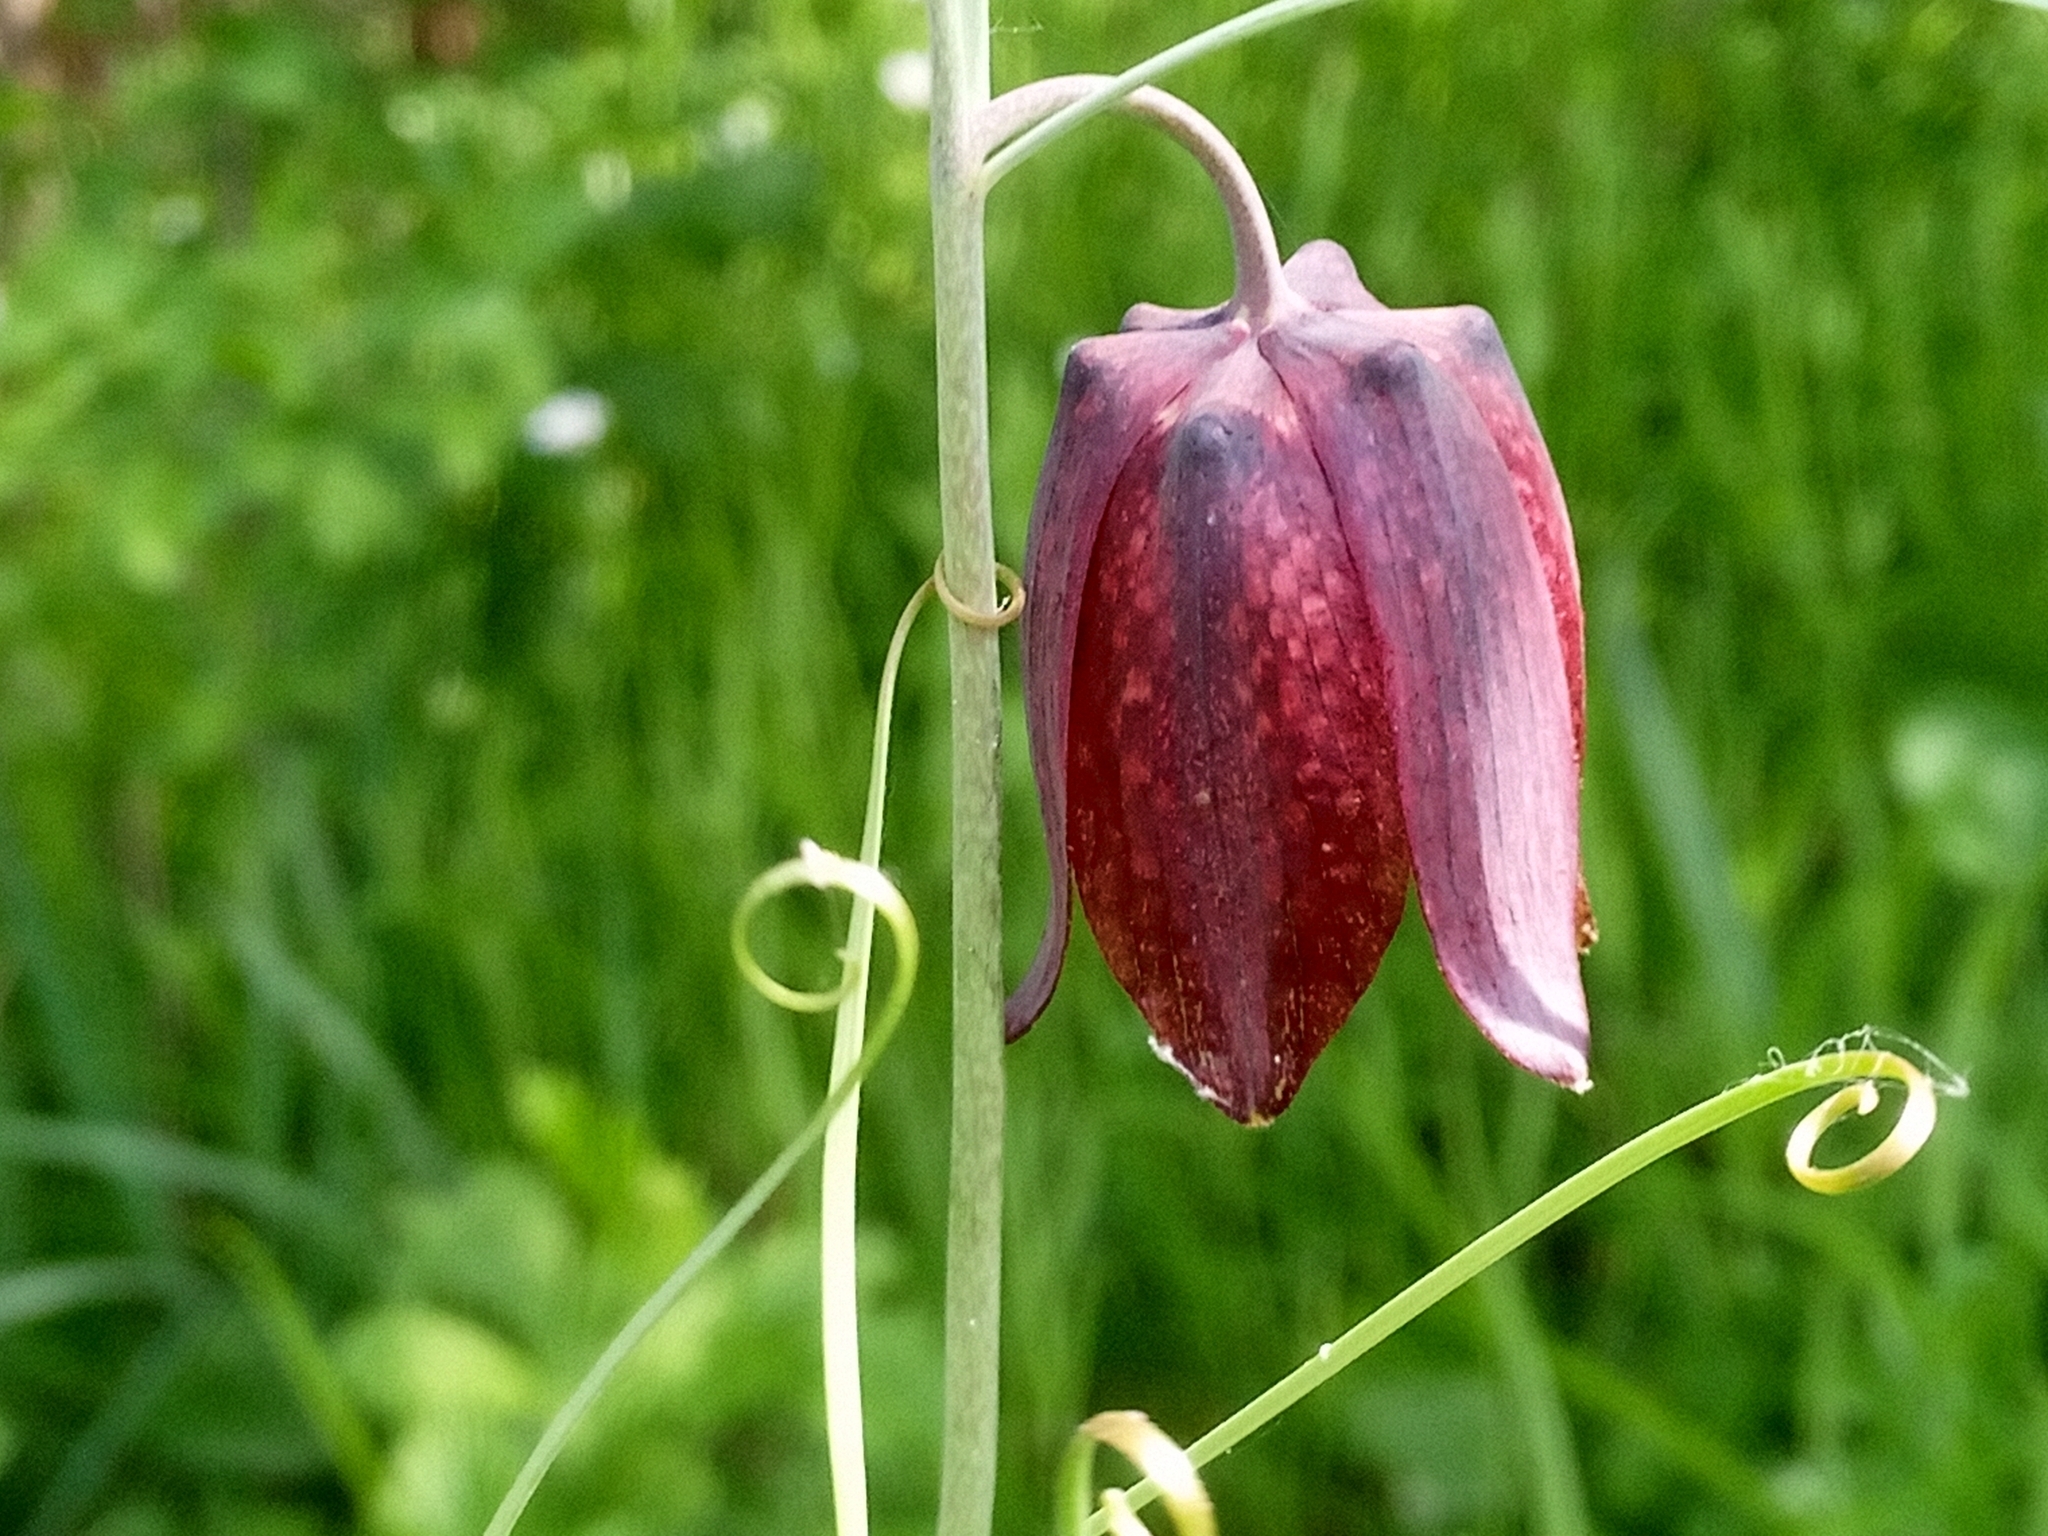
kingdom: Plantae
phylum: Tracheophyta
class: Liliopsida
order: Liliales
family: Liliaceae
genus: Fritillaria
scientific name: Fritillaria ruthenica
